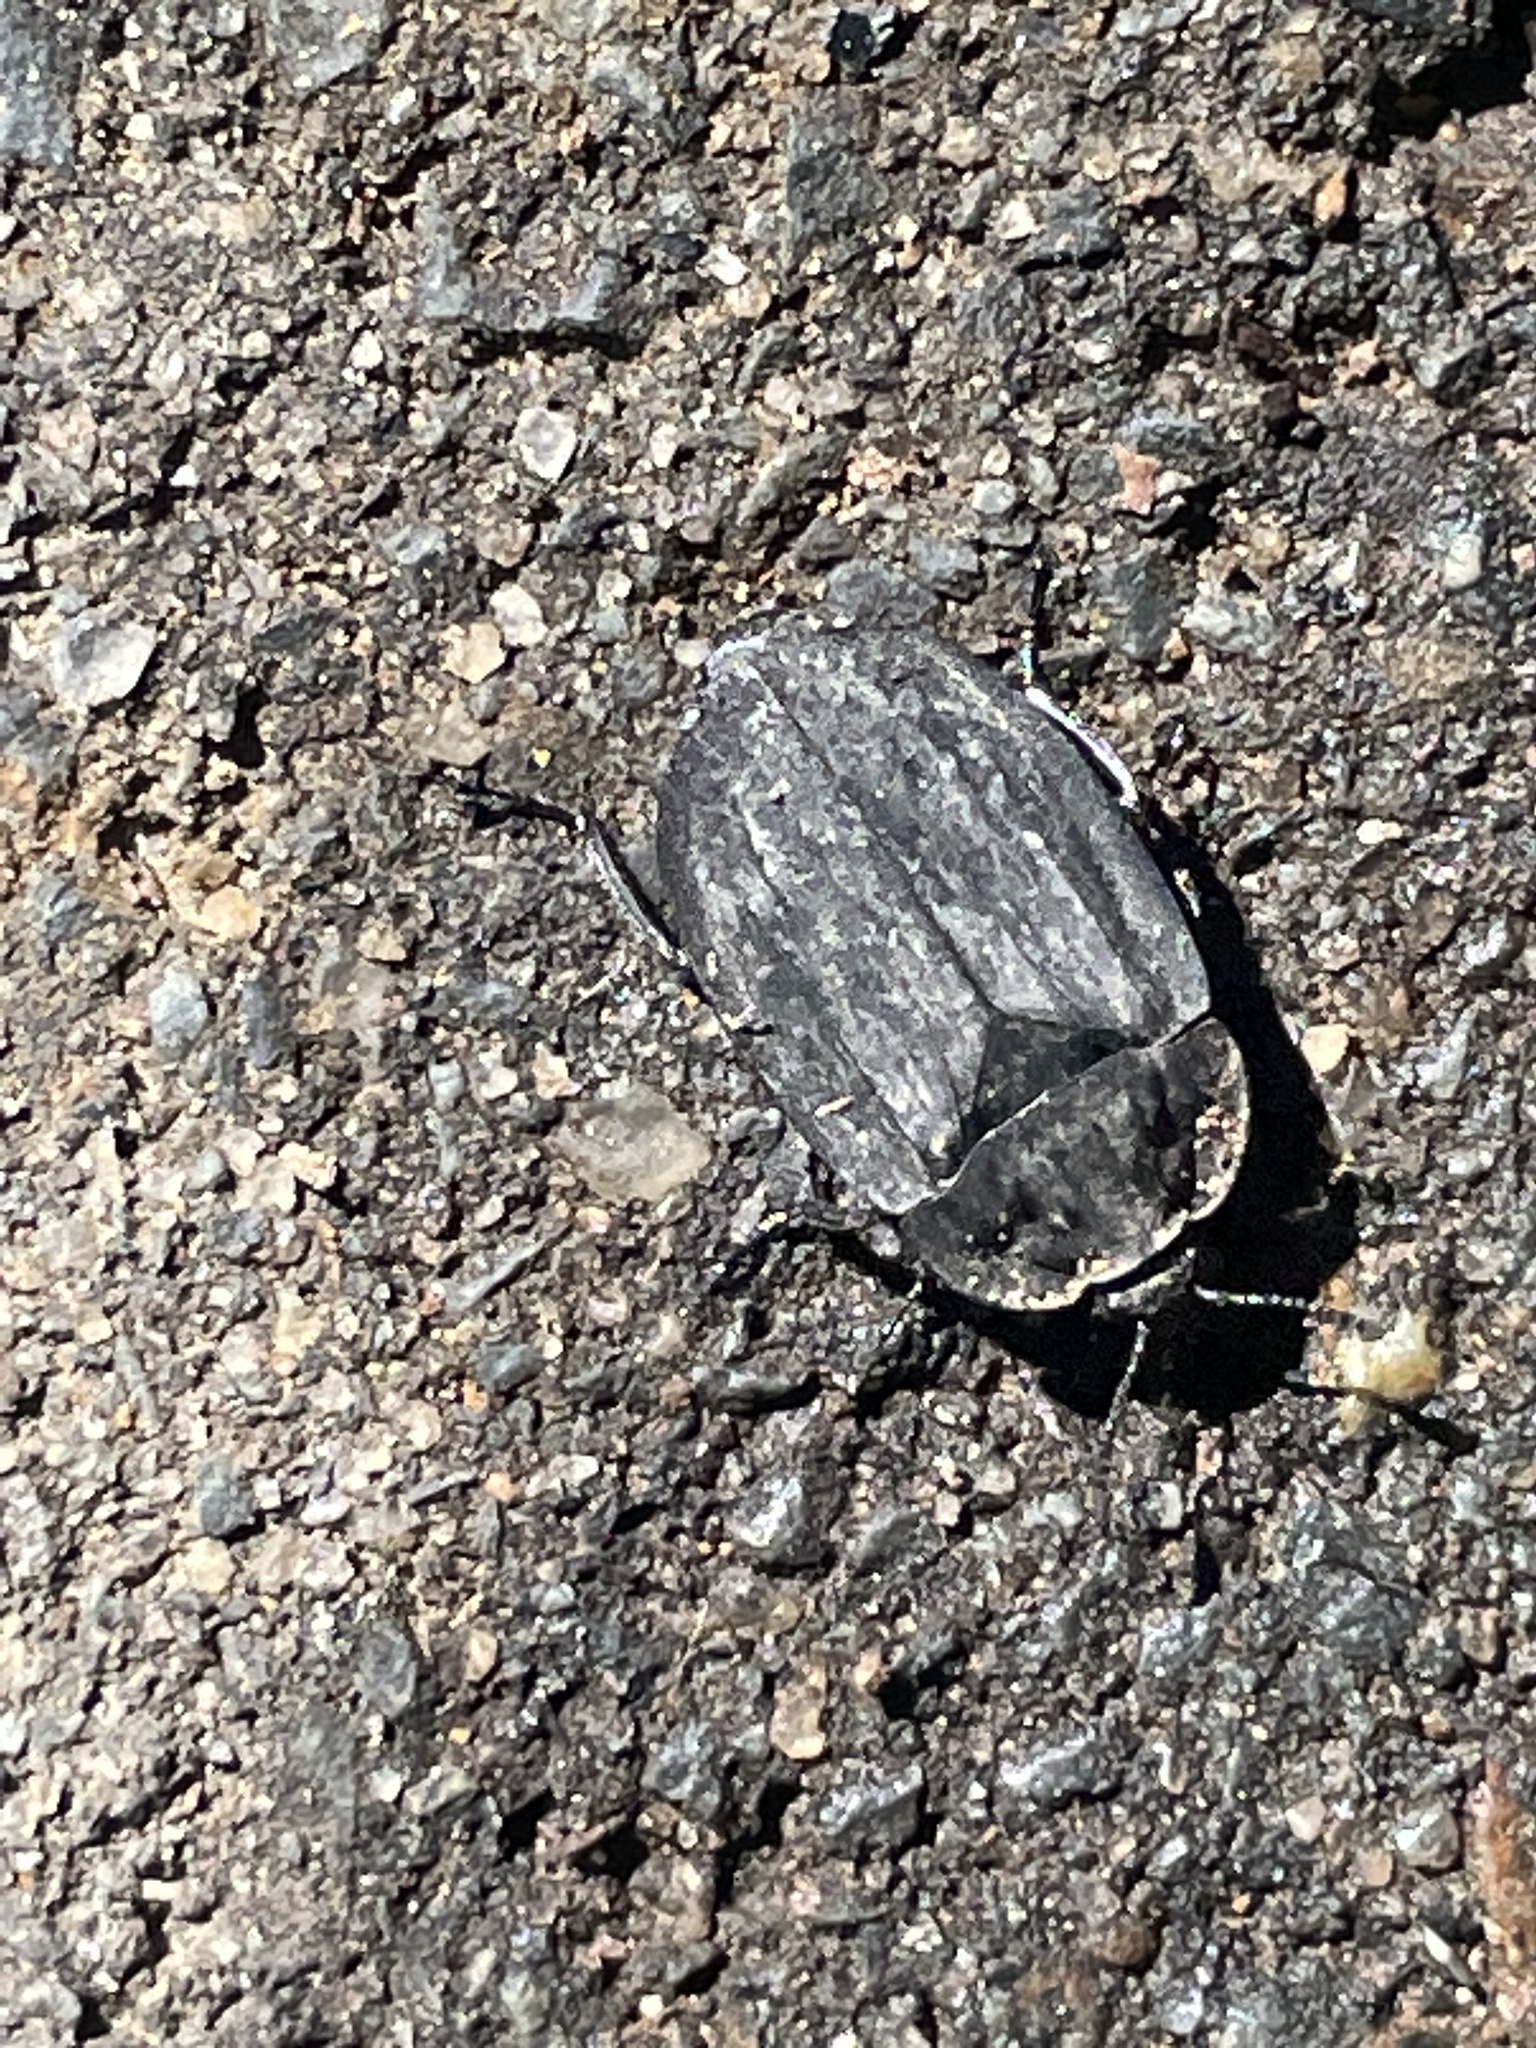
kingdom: Animalia
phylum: Arthropoda
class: Insecta
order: Coleoptera
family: Staphylinidae
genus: Oiceoptoma
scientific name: Oiceoptoma inaequale
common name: Ridged carrion beetle
